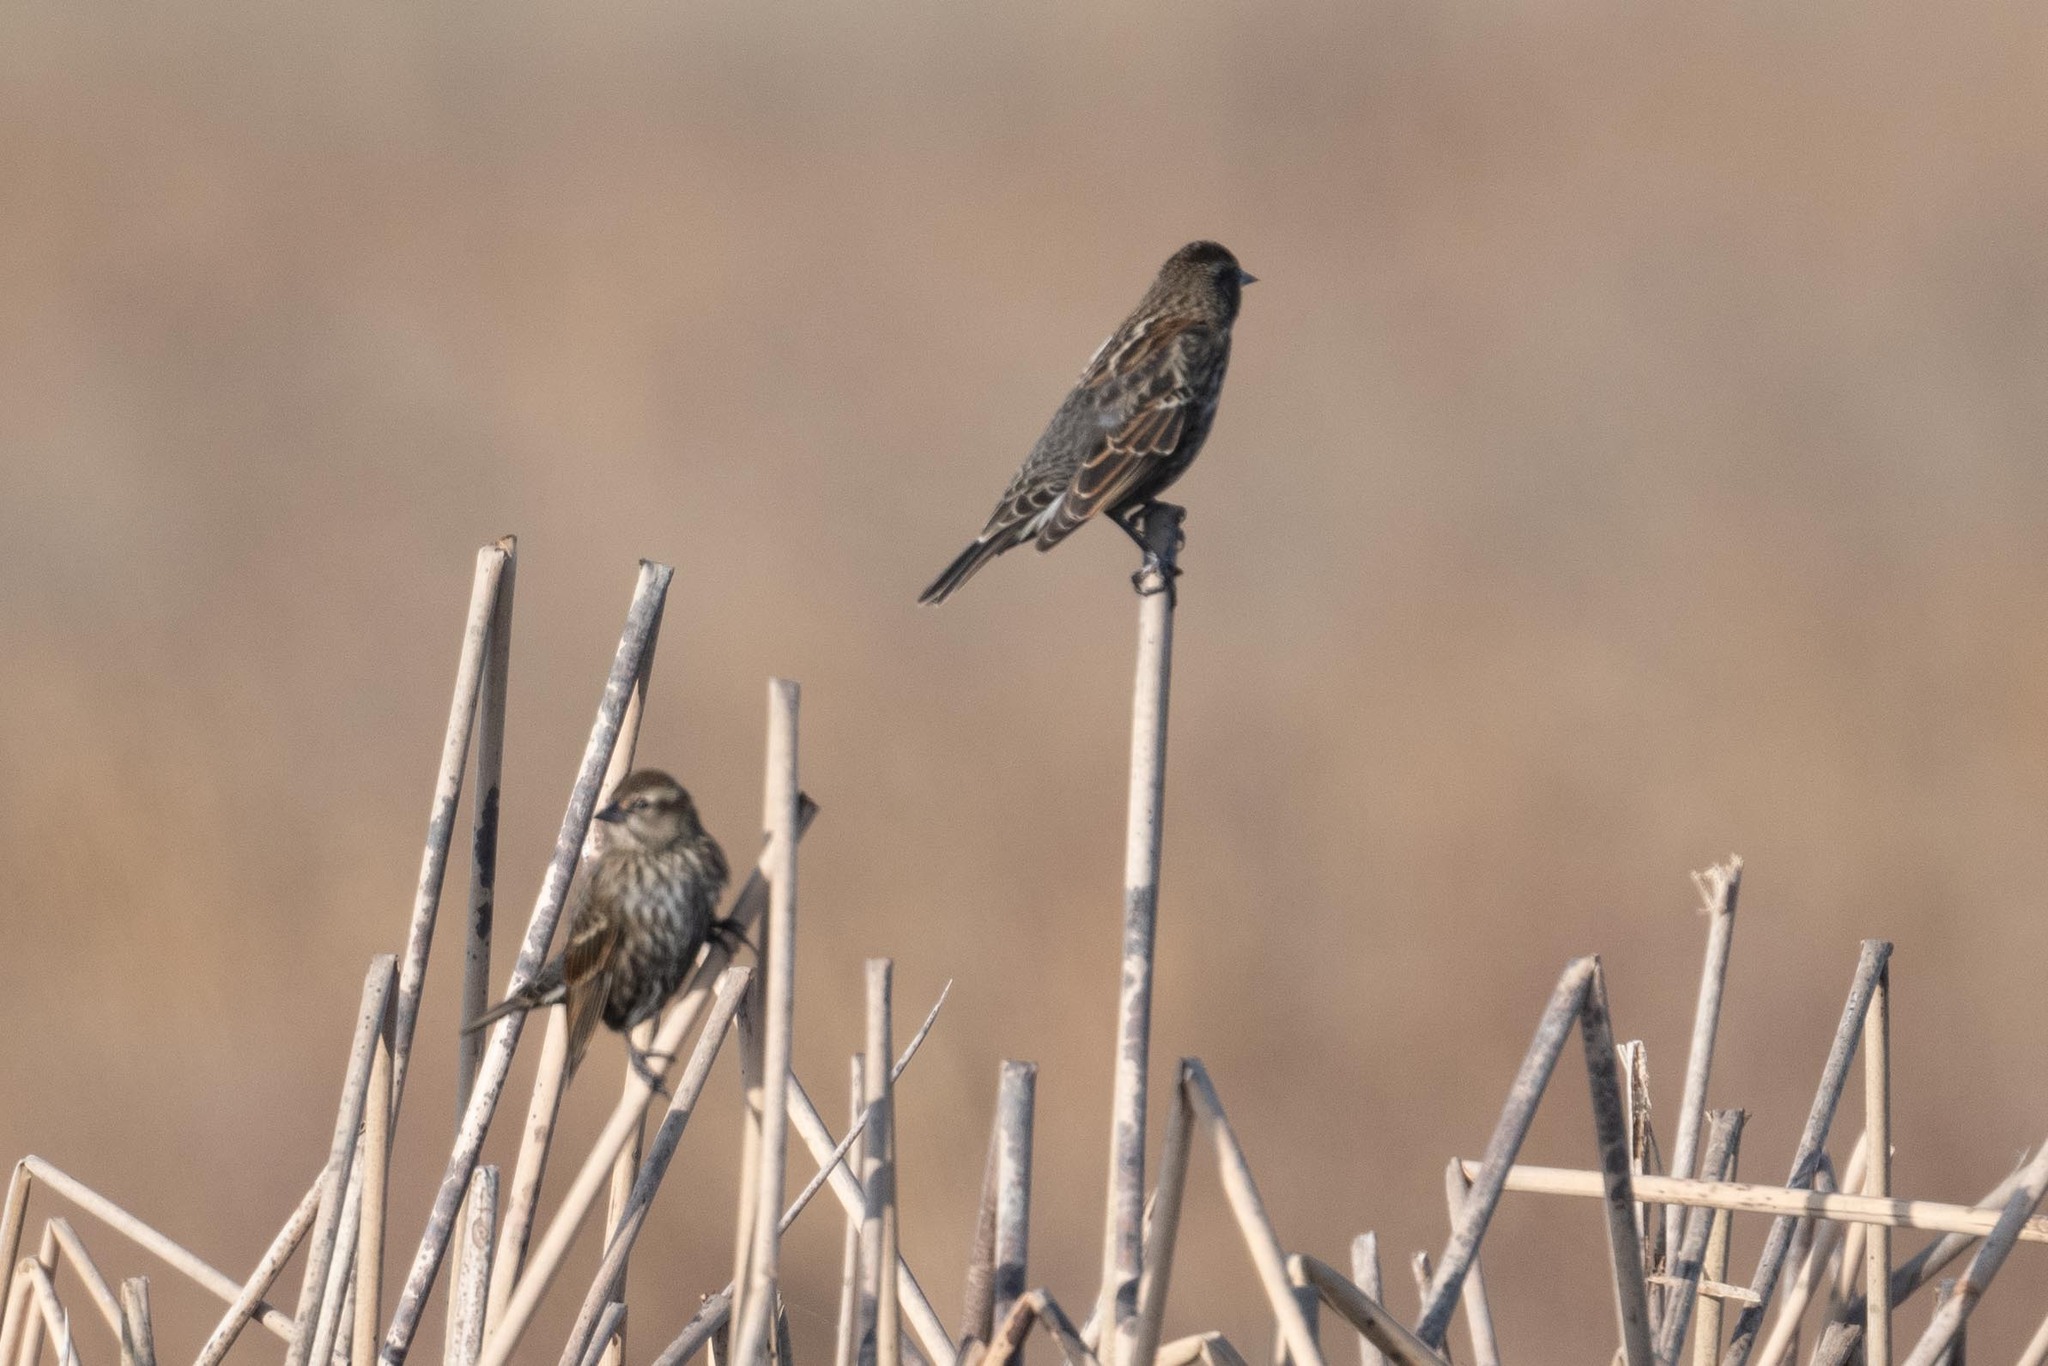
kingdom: Animalia
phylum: Chordata
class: Aves
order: Passeriformes
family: Icteridae
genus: Agelaius
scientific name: Agelaius phoeniceus
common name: Red-winged blackbird
